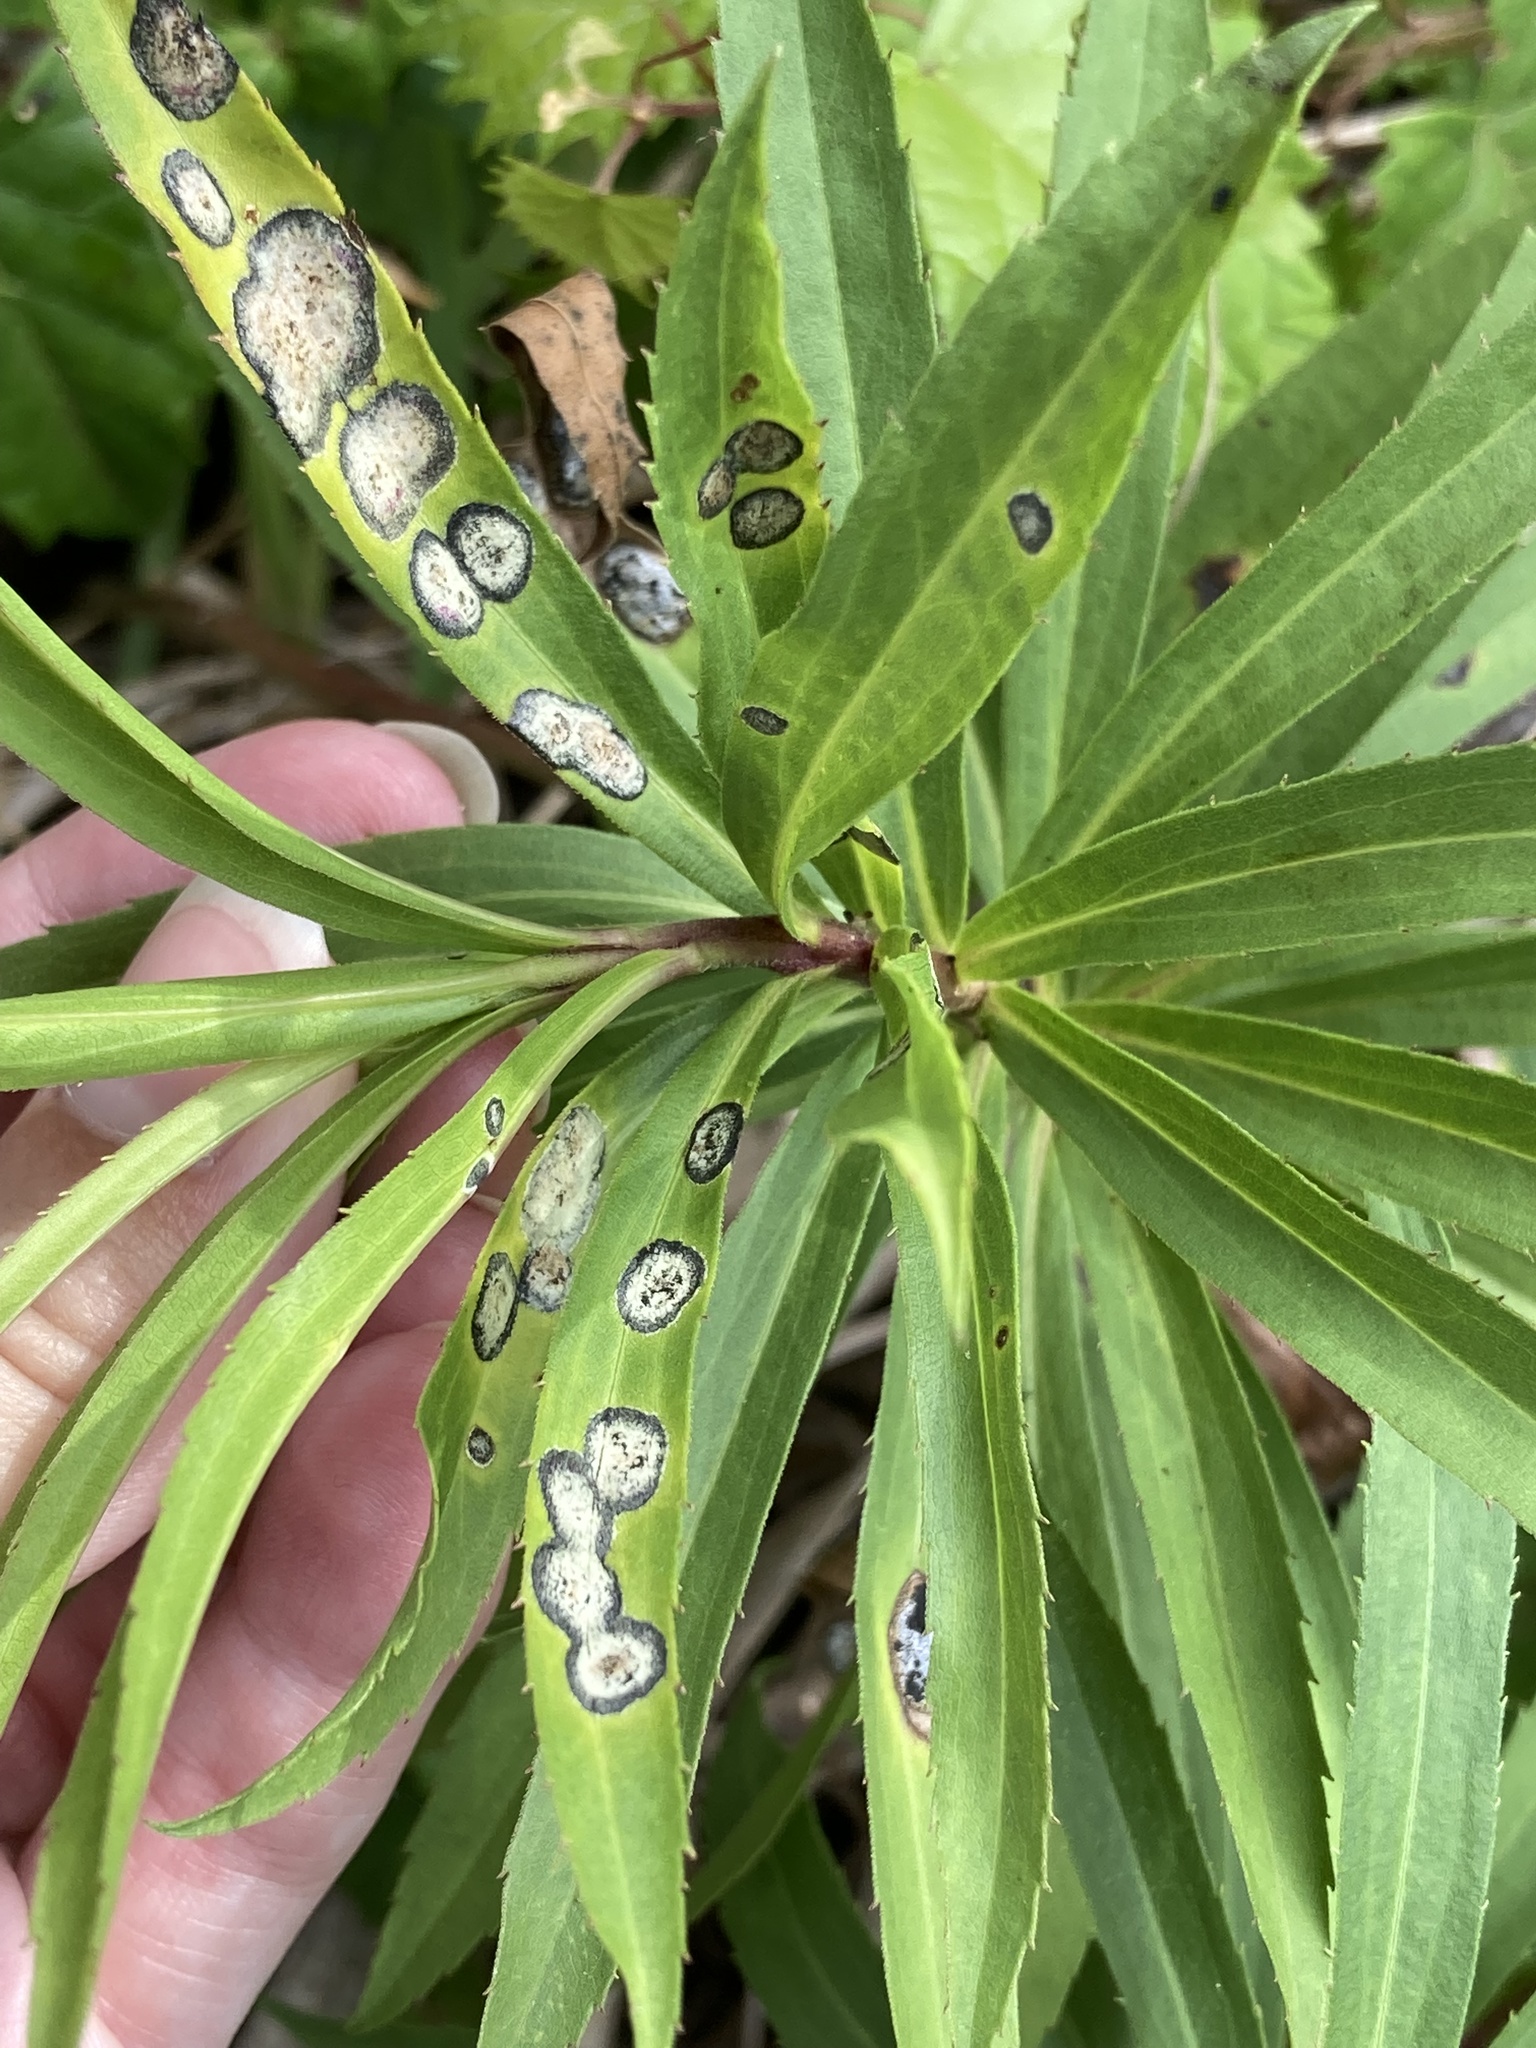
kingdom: Animalia
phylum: Arthropoda
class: Insecta
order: Diptera
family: Cecidomyiidae
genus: Asteromyia
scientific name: Asteromyia carbonifera
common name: Carbonifera goldenrod gall midge
